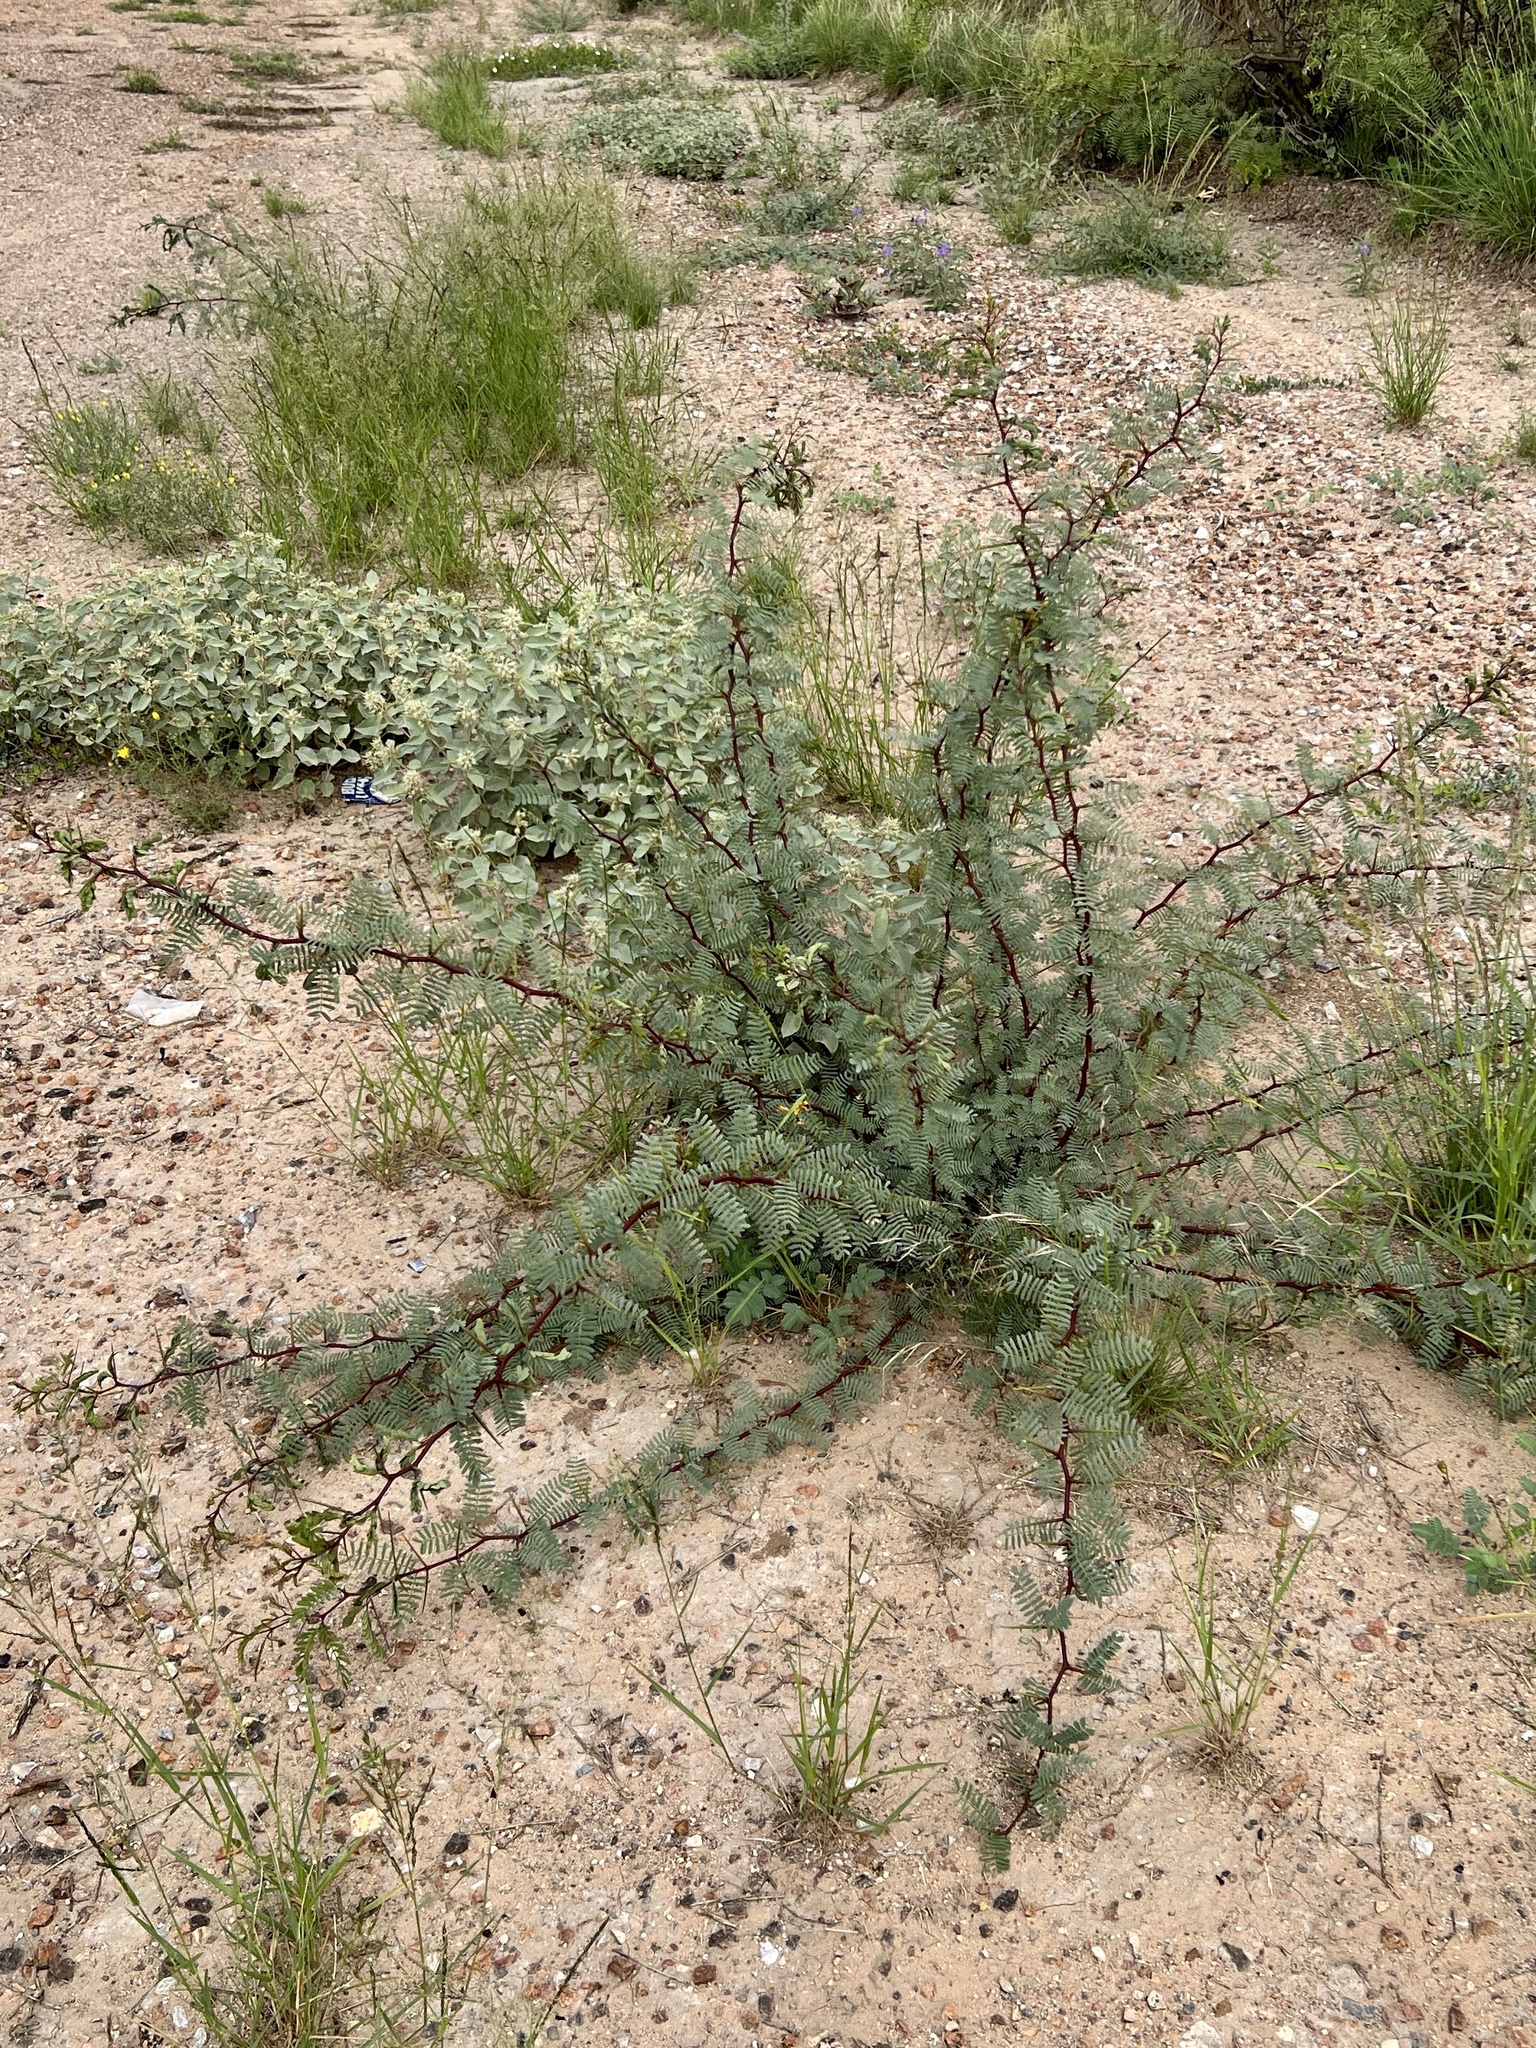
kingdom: Plantae
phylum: Tracheophyta
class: Magnoliopsida
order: Fabales
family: Fabaceae
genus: Vachellia
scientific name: Vachellia constricta
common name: Mescat acacia
